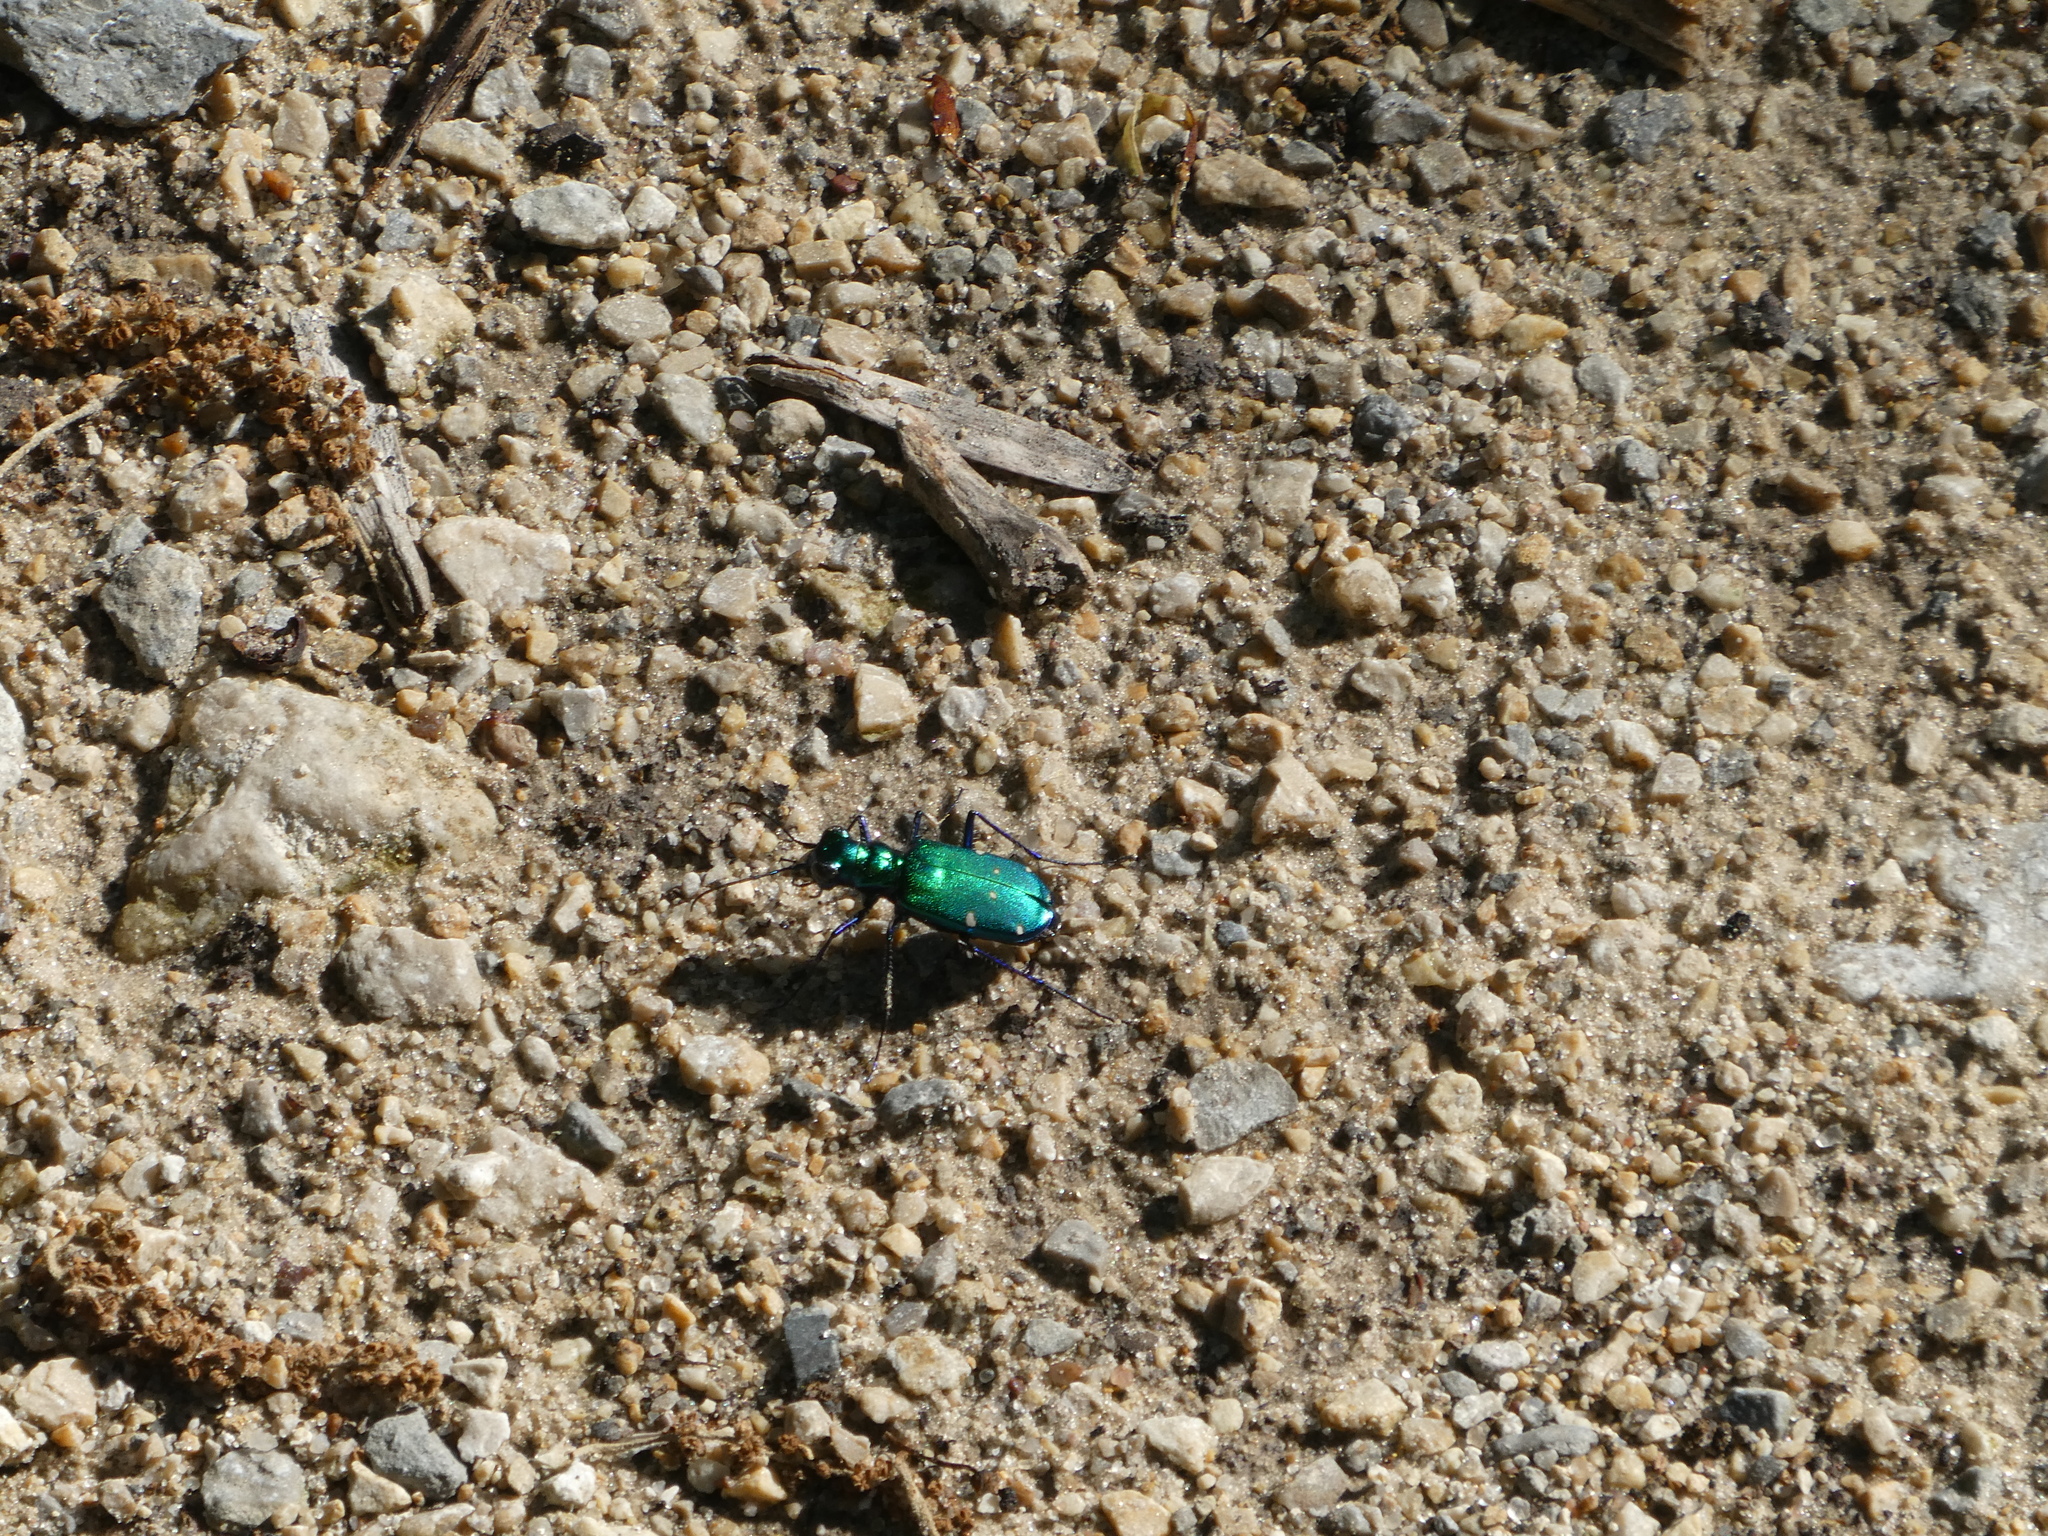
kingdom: Animalia
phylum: Arthropoda
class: Insecta
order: Coleoptera
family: Carabidae
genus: Cicindela
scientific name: Cicindela sexguttata
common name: Six-spotted tiger beetle
